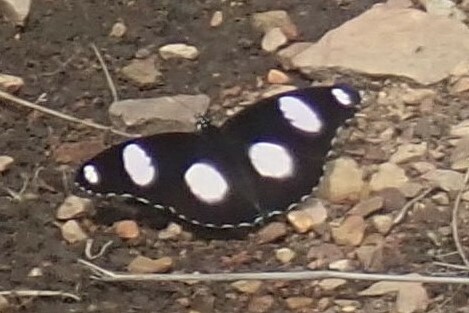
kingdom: Animalia
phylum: Arthropoda
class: Insecta
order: Lepidoptera
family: Nymphalidae
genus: Hypolimnas
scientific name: Hypolimnas misippus
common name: False plain tiger
